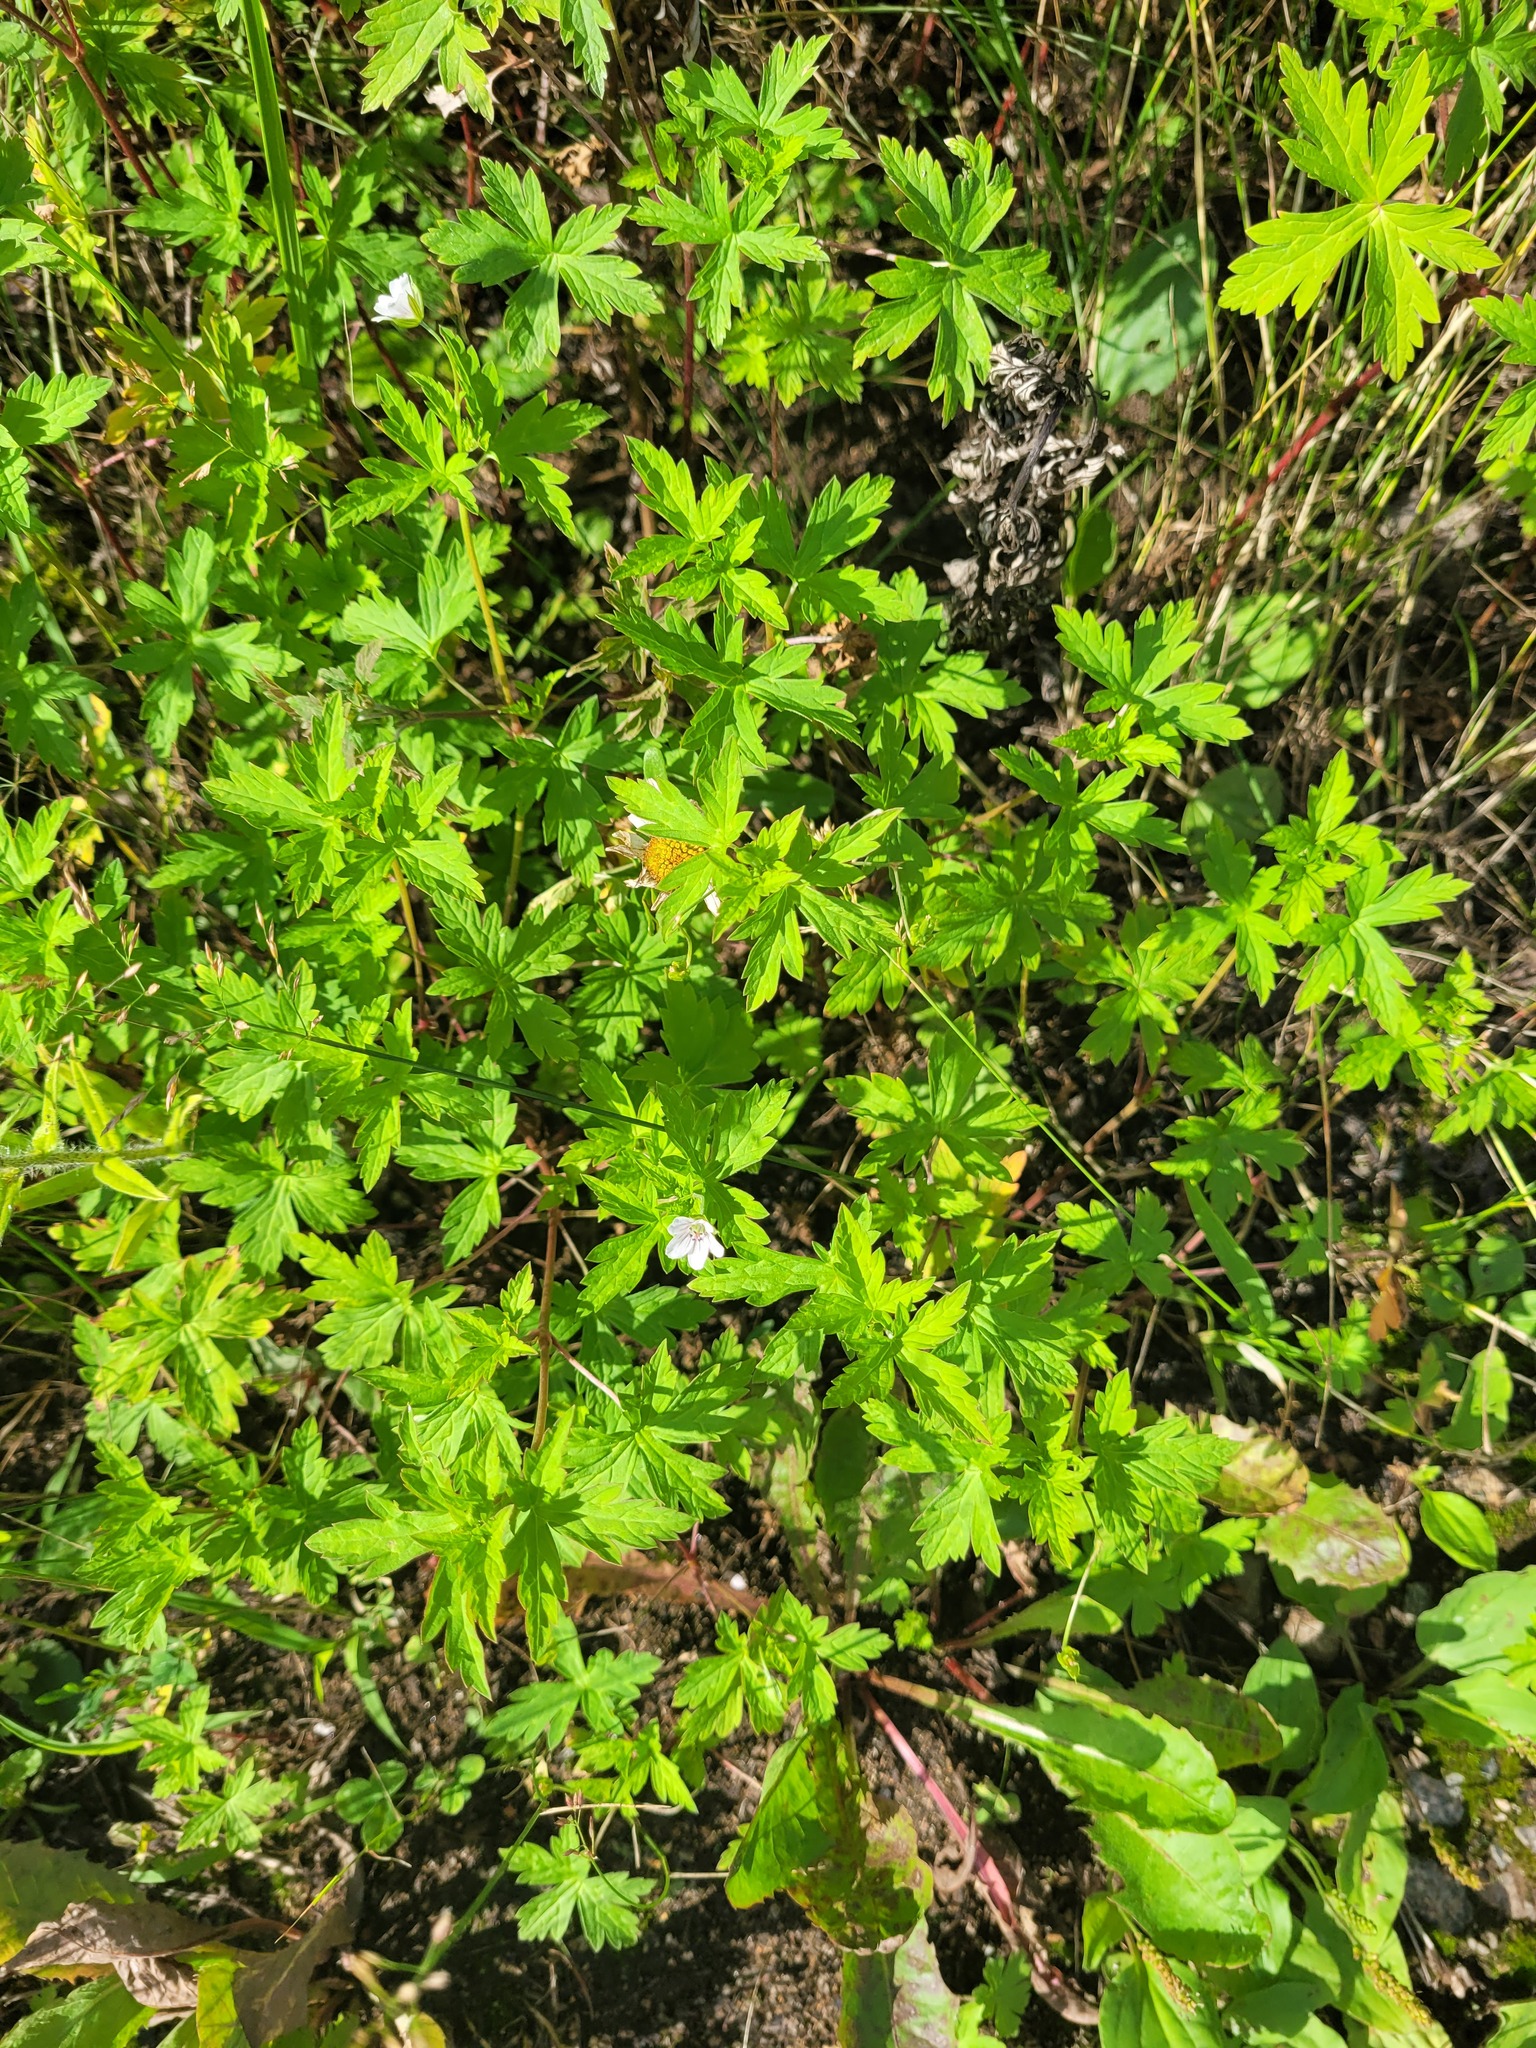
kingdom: Plantae
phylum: Tracheophyta
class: Magnoliopsida
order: Geraniales
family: Geraniaceae
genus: Geranium
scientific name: Geranium sibiricum
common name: Siberian crane's-bill
